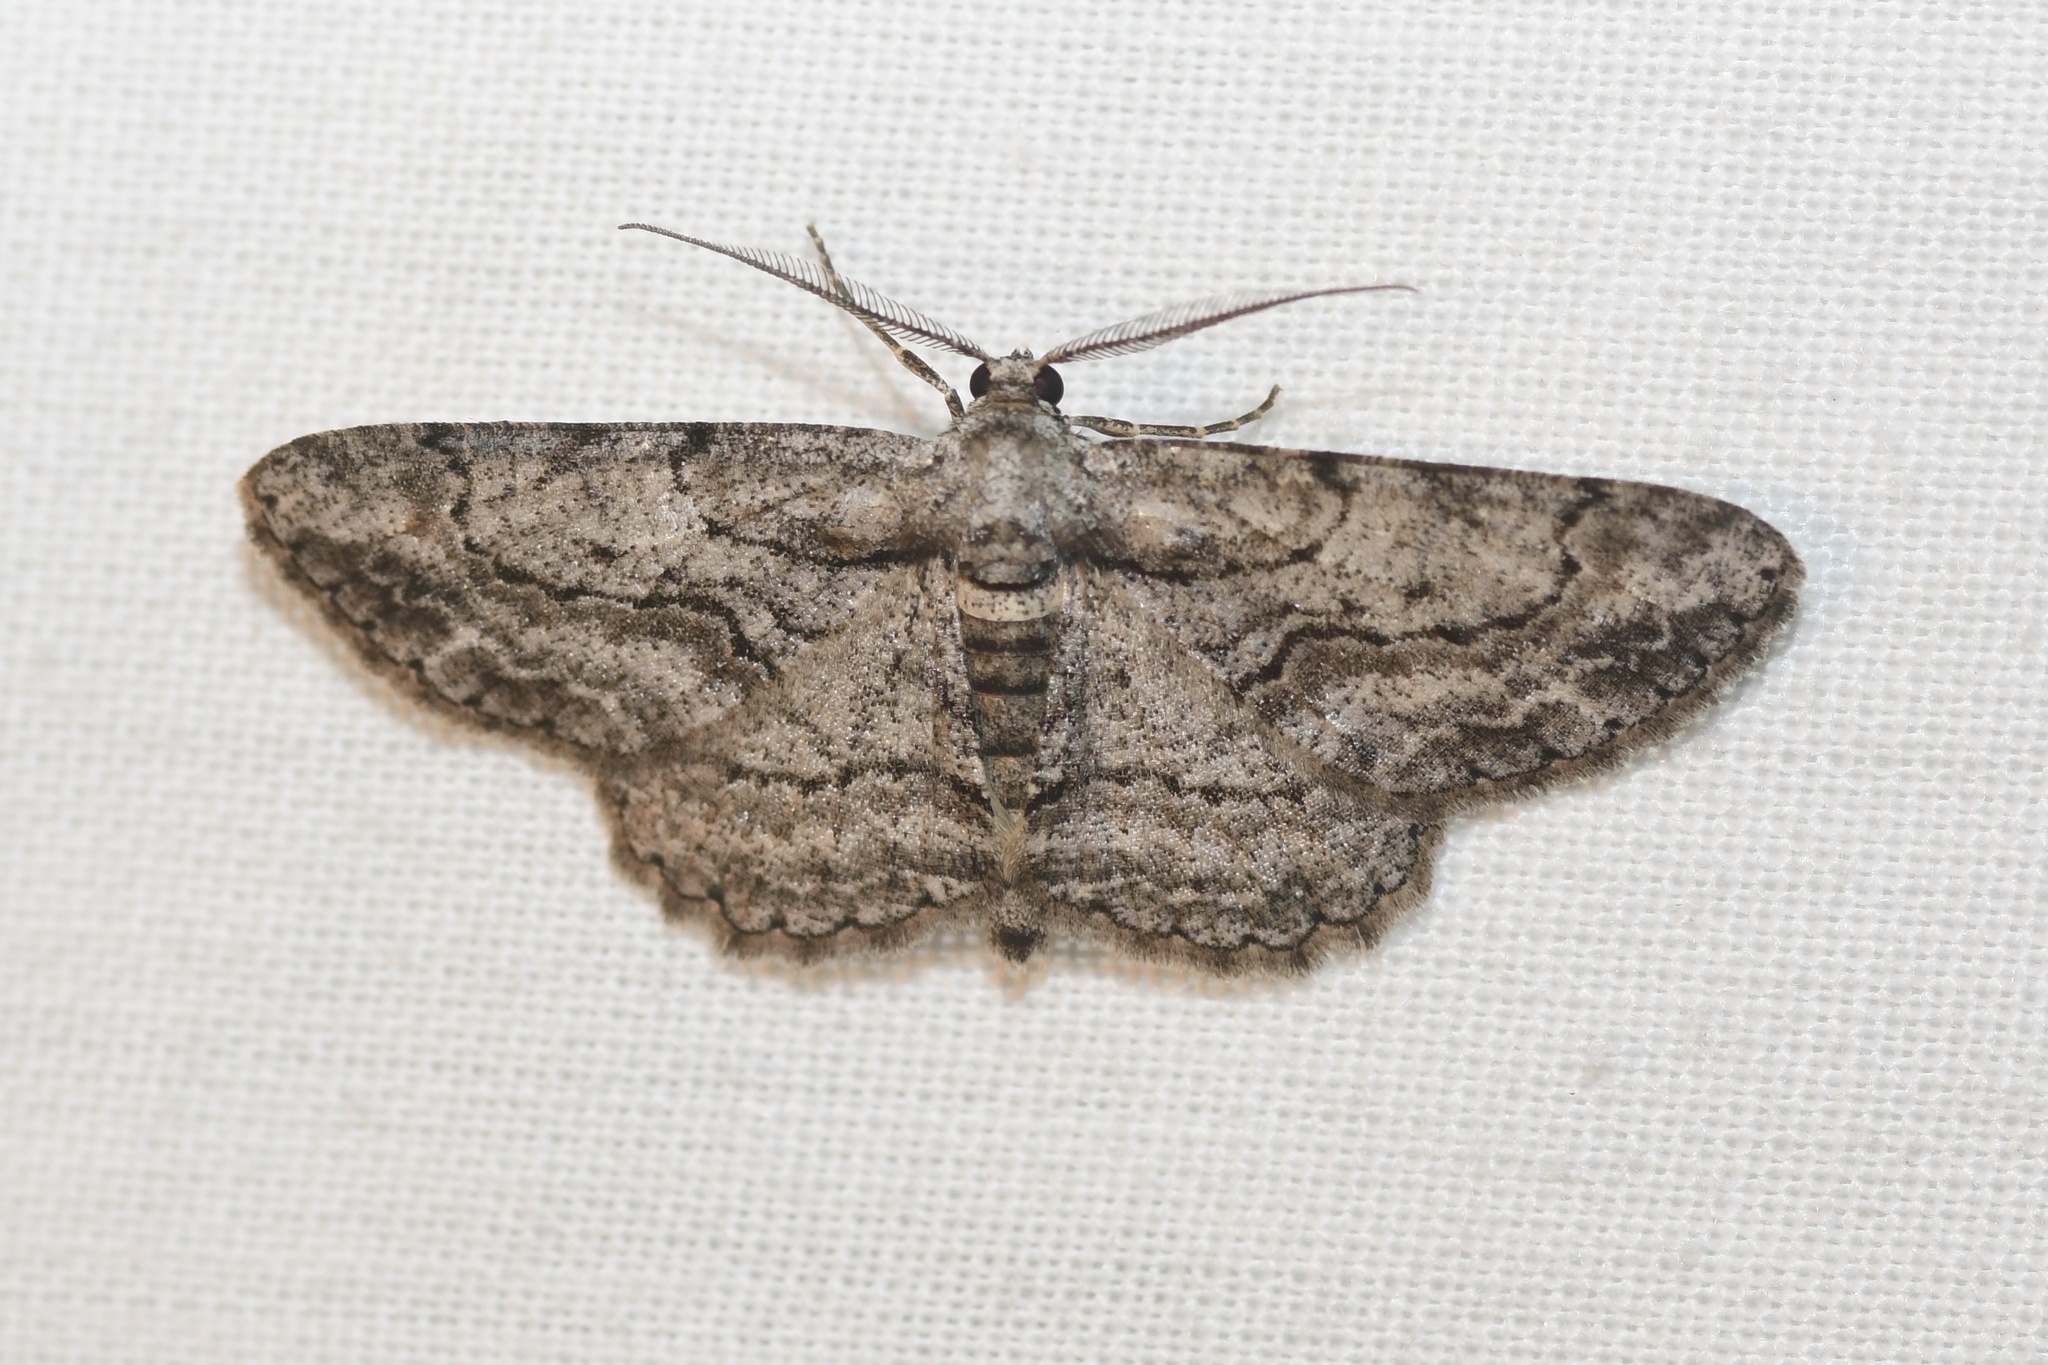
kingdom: Animalia
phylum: Arthropoda
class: Insecta
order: Lepidoptera
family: Geometridae
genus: Anavitrinella
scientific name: Anavitrinella pampinaria
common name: Common gray
